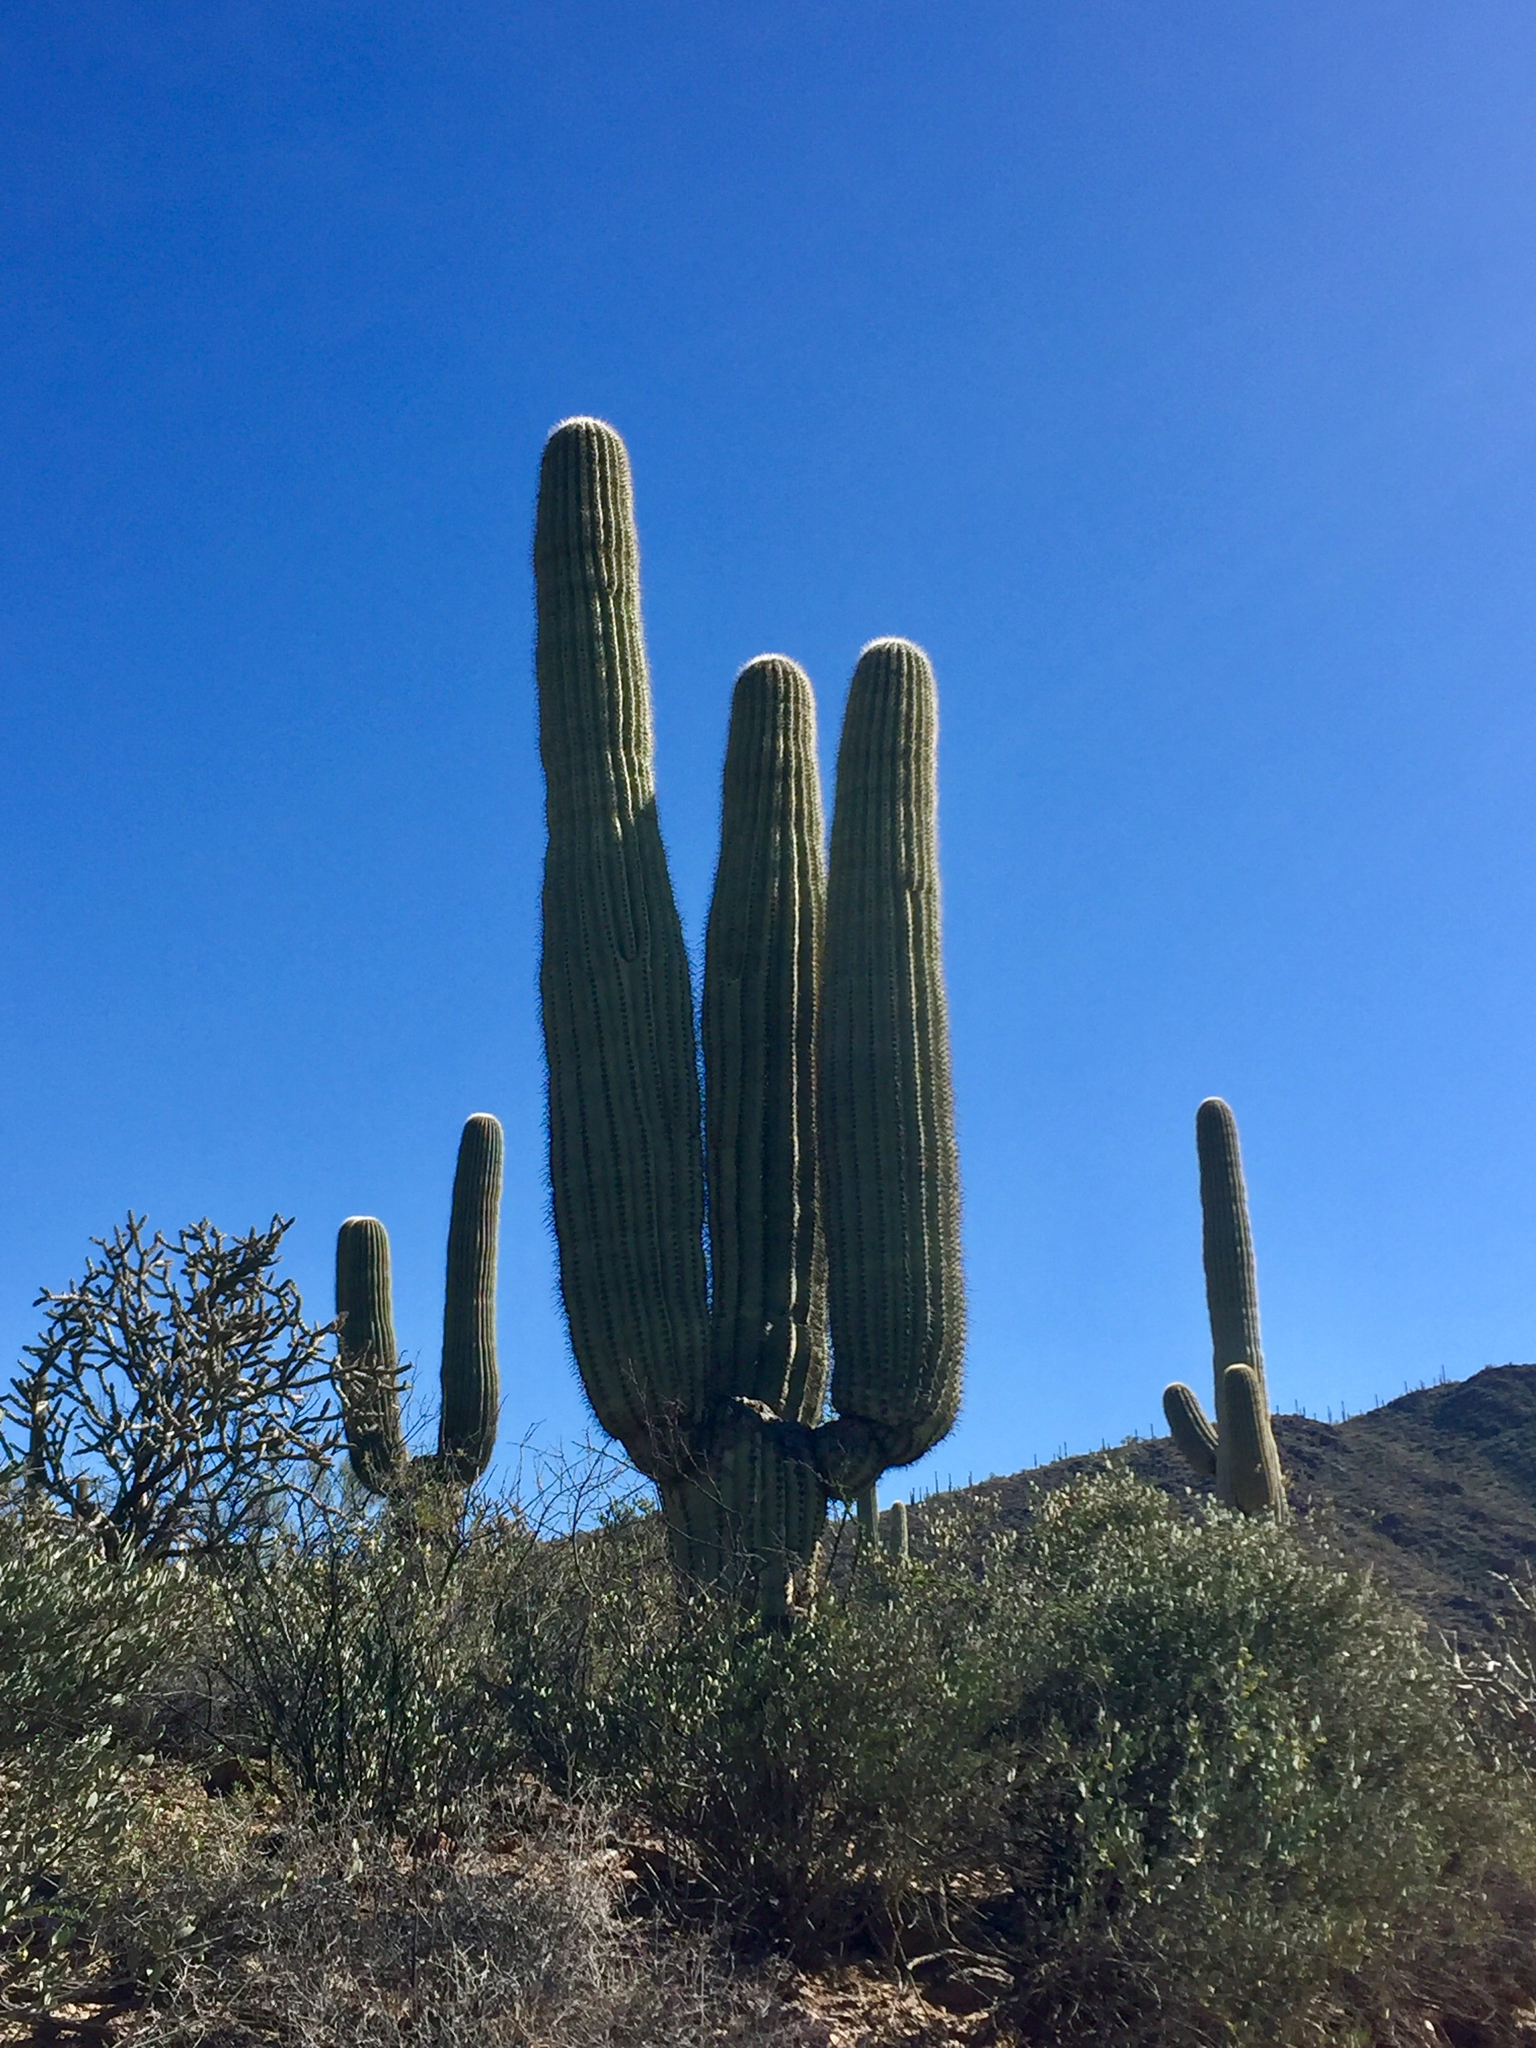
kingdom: Plantae
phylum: Tracheophyta
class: Magnoliopsida
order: Caryophyllales
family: Cactaceae
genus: Carnegiea
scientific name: Carnegiea gigantea
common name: Saguaro
